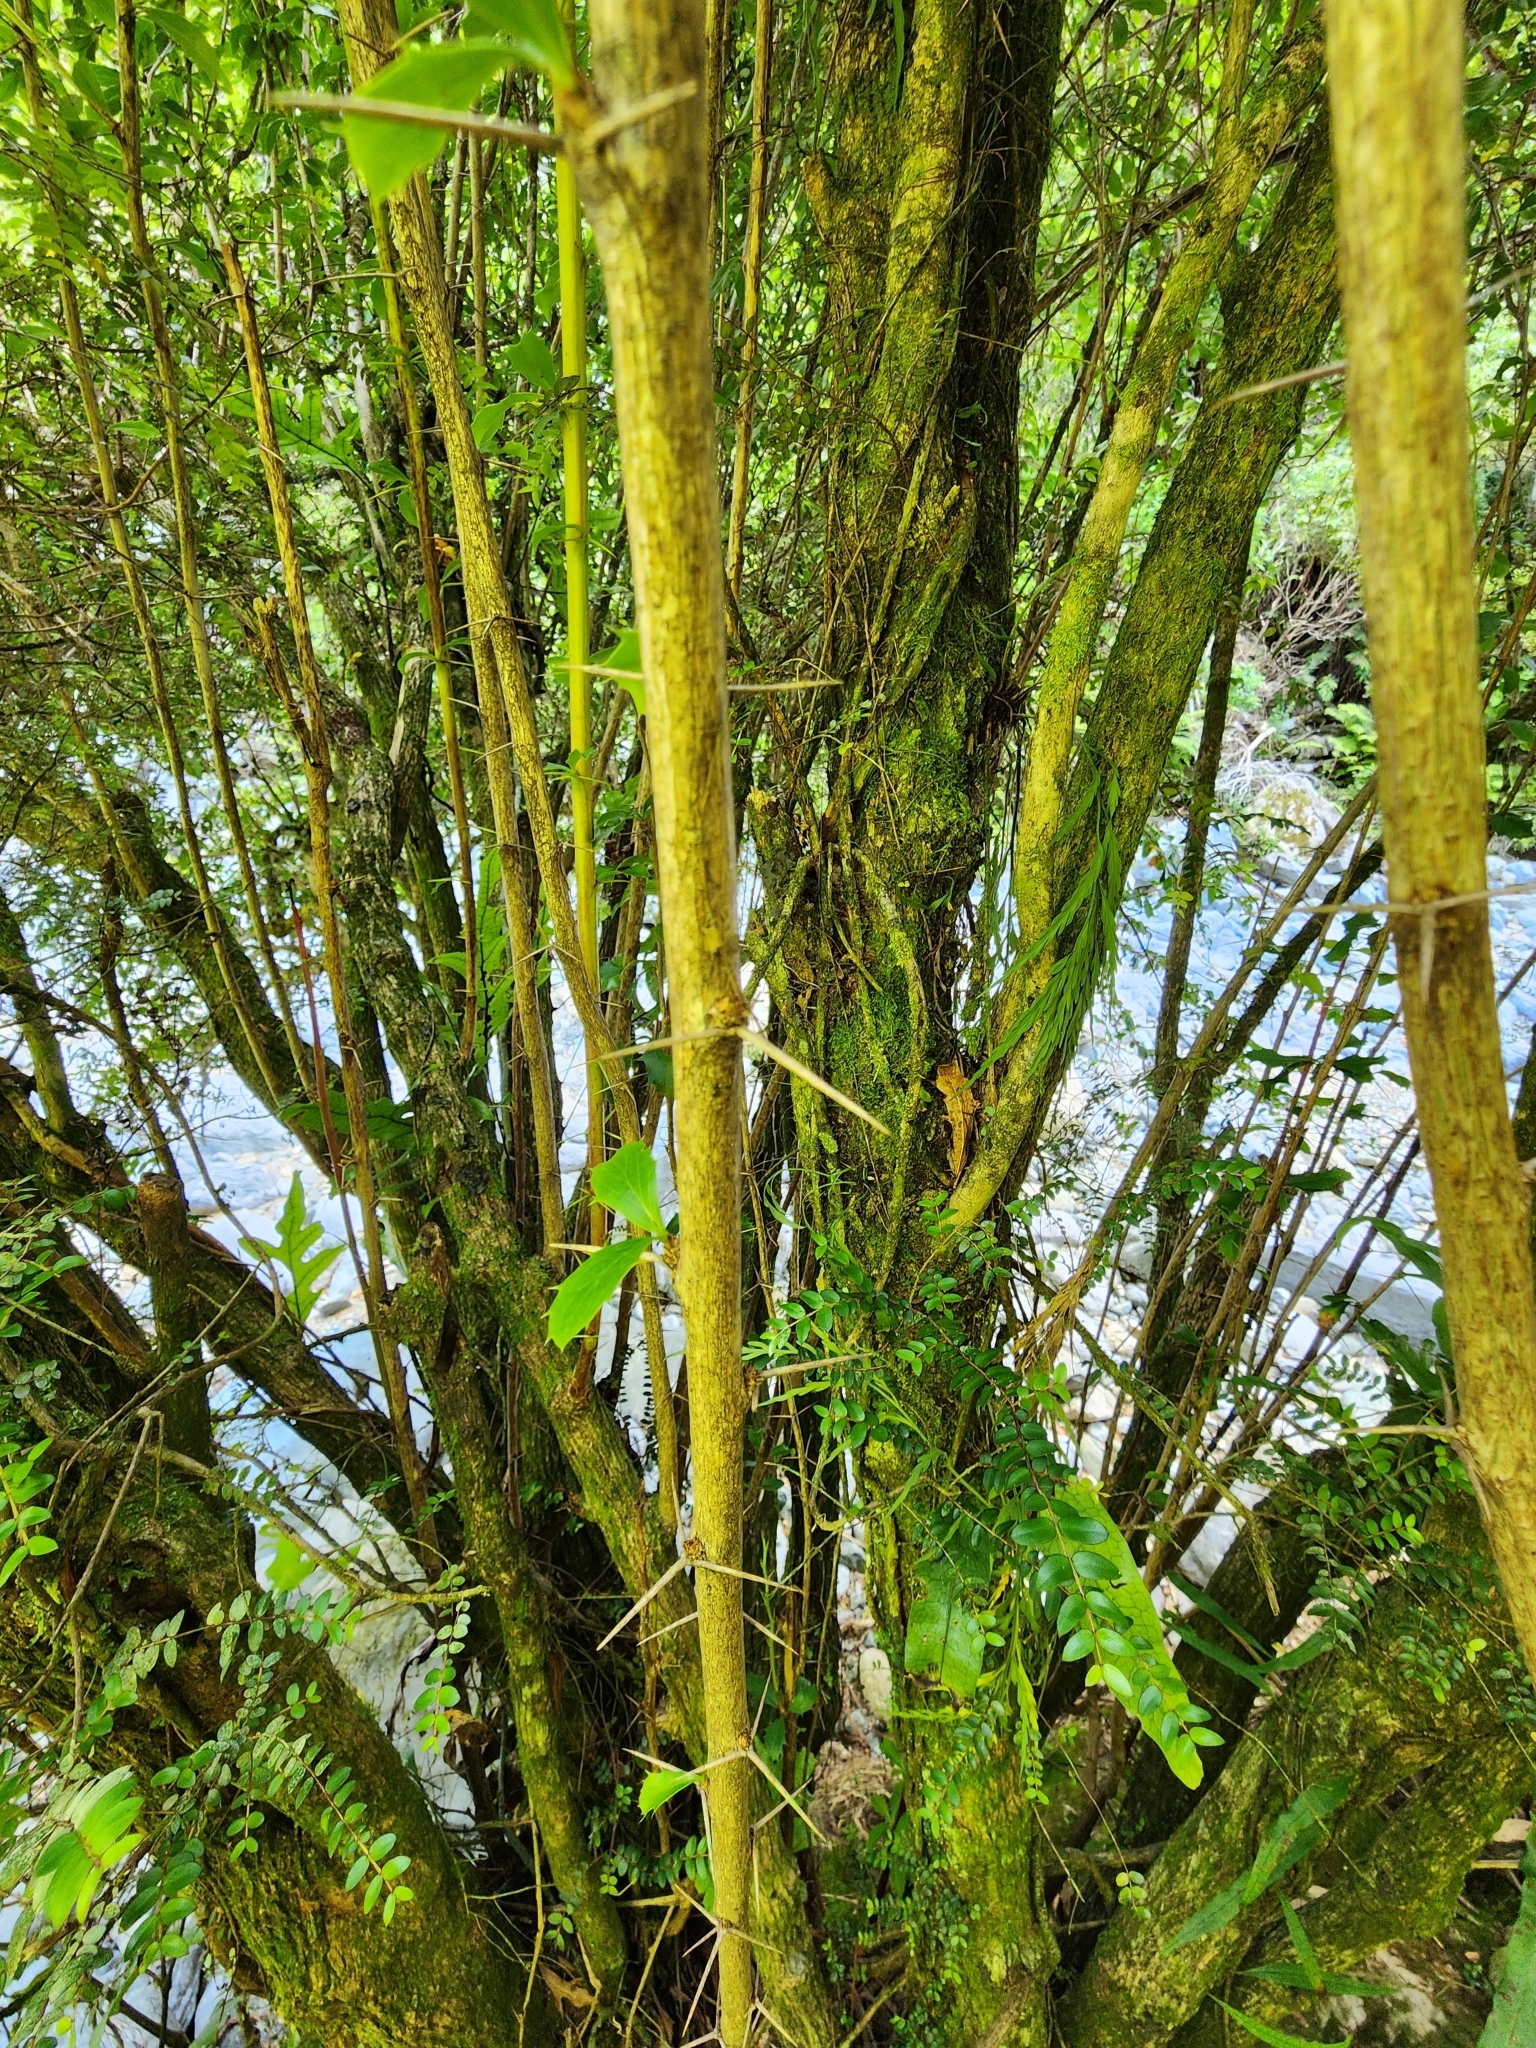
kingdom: Plantae
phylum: Tracheophyta
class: Magnoliopsida
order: Ranunculales
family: Berberidaceae
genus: Berberis
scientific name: Berberis glaucocarpa
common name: Great barberry
